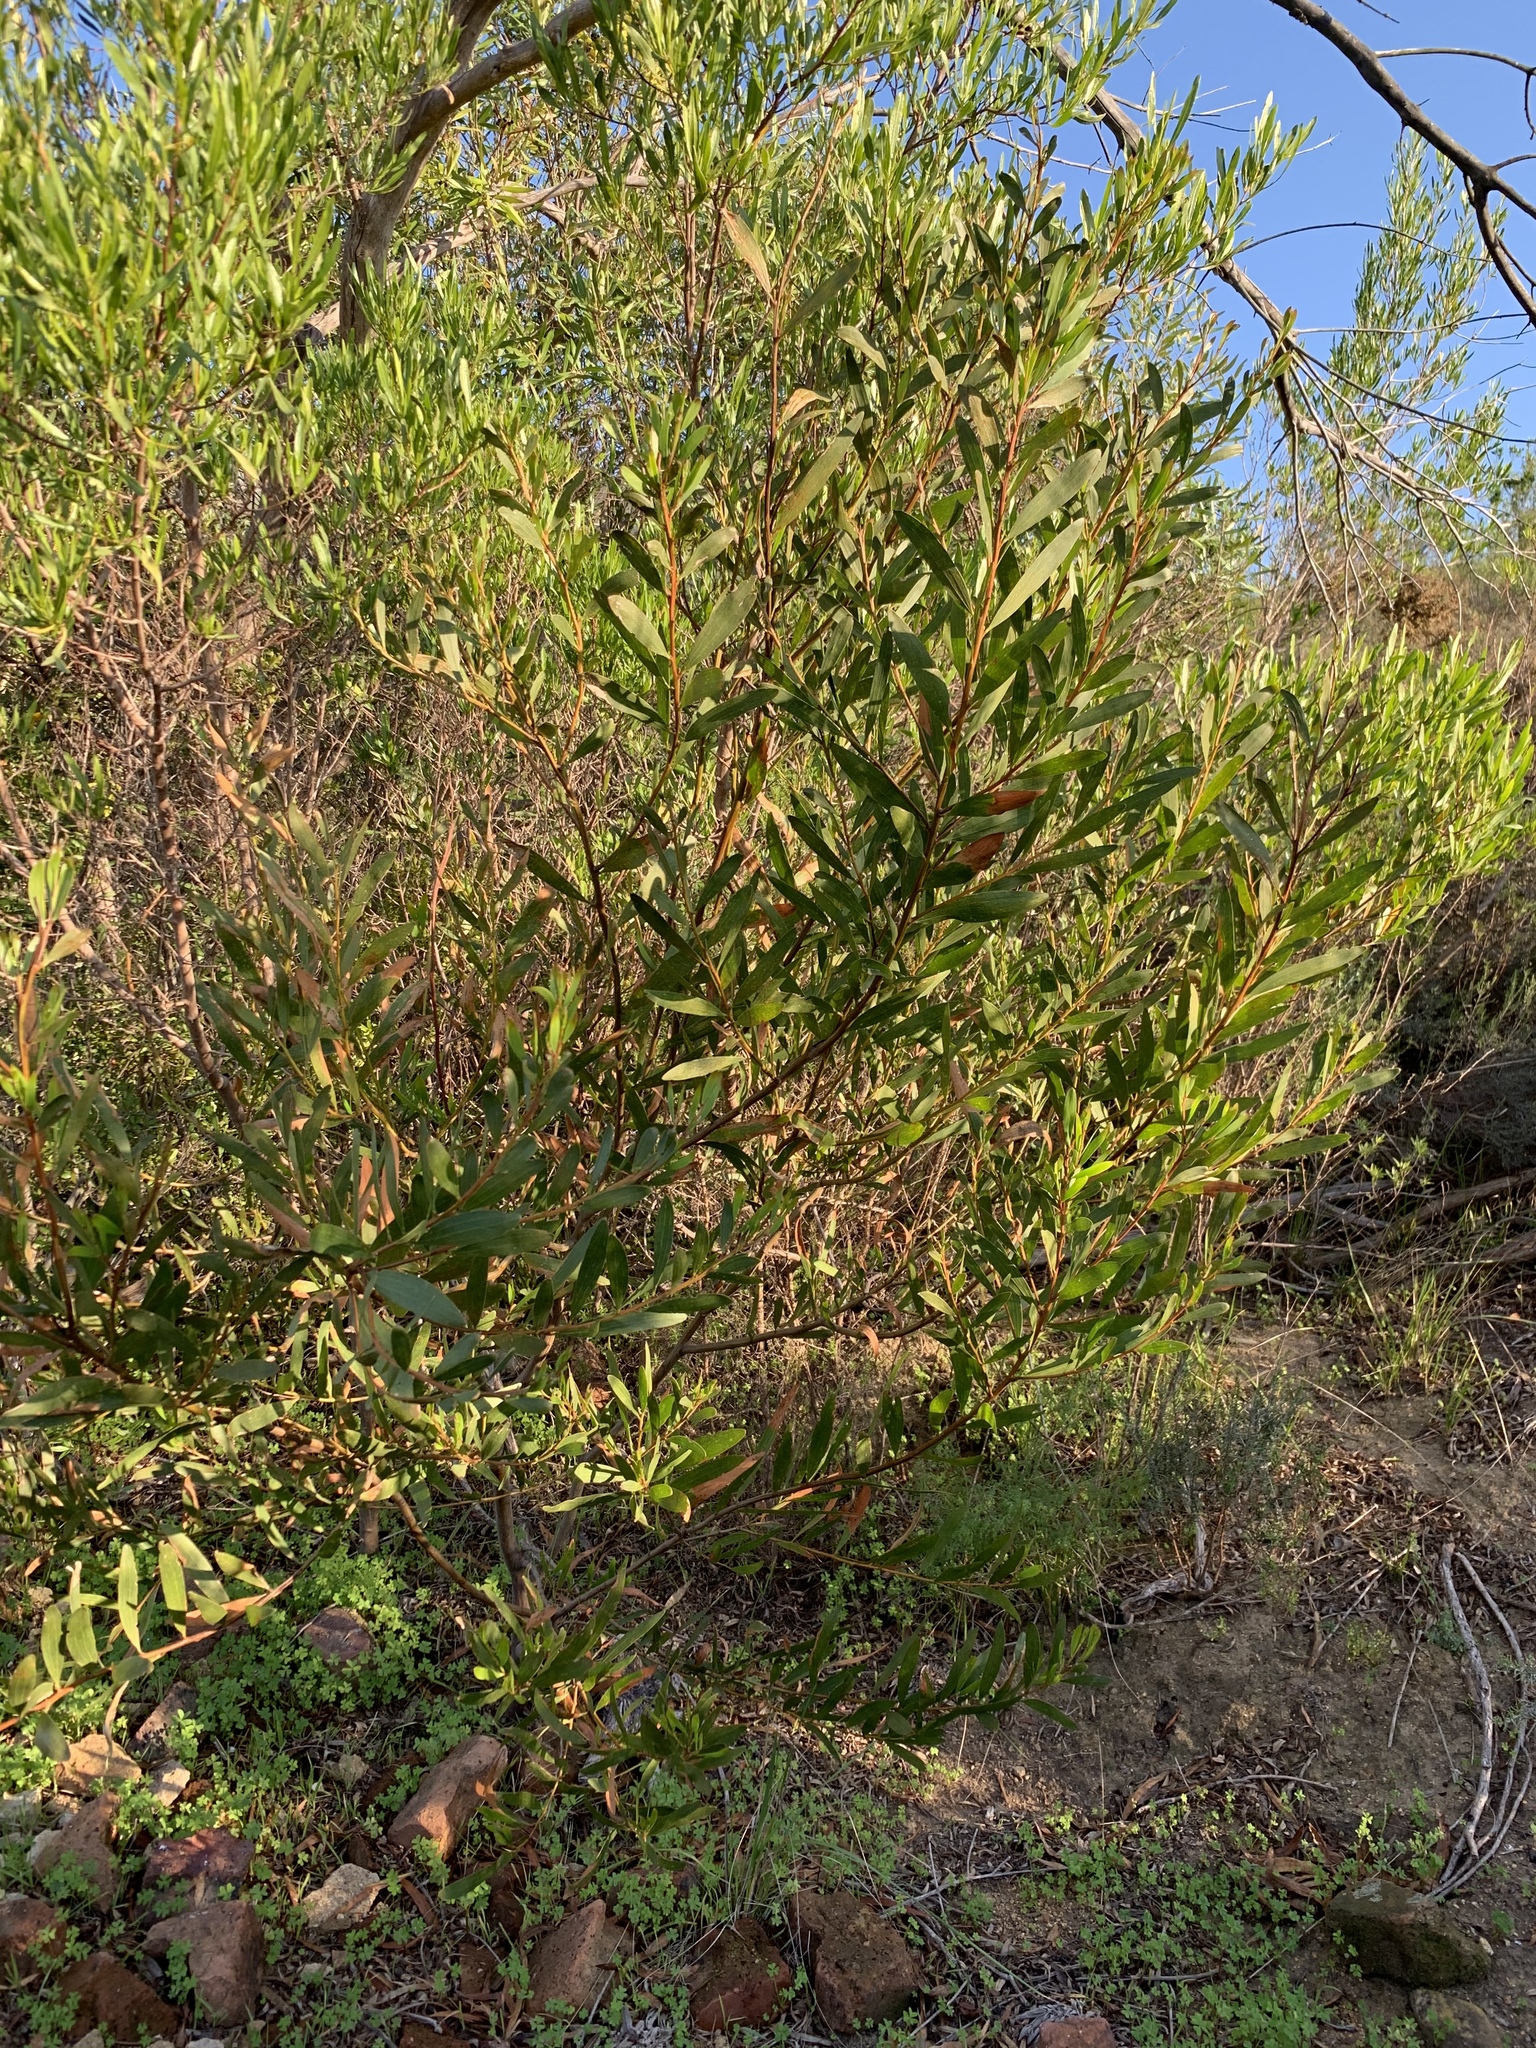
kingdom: Plantae
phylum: Tracheophyta
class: Magnoliopsida
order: Fabales
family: Fabaceae
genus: Acacia
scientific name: Acacia longifolia
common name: Sydney golden wattle
